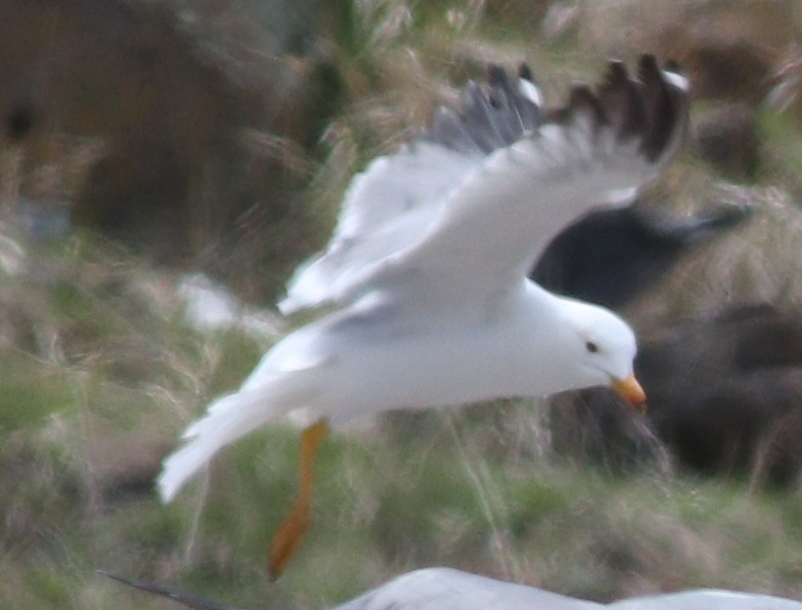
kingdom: Animalia
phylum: Chordata
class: Aves
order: Charadriiformes
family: Laridae
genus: Larus
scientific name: Larus armenicus
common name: Armenian gull
